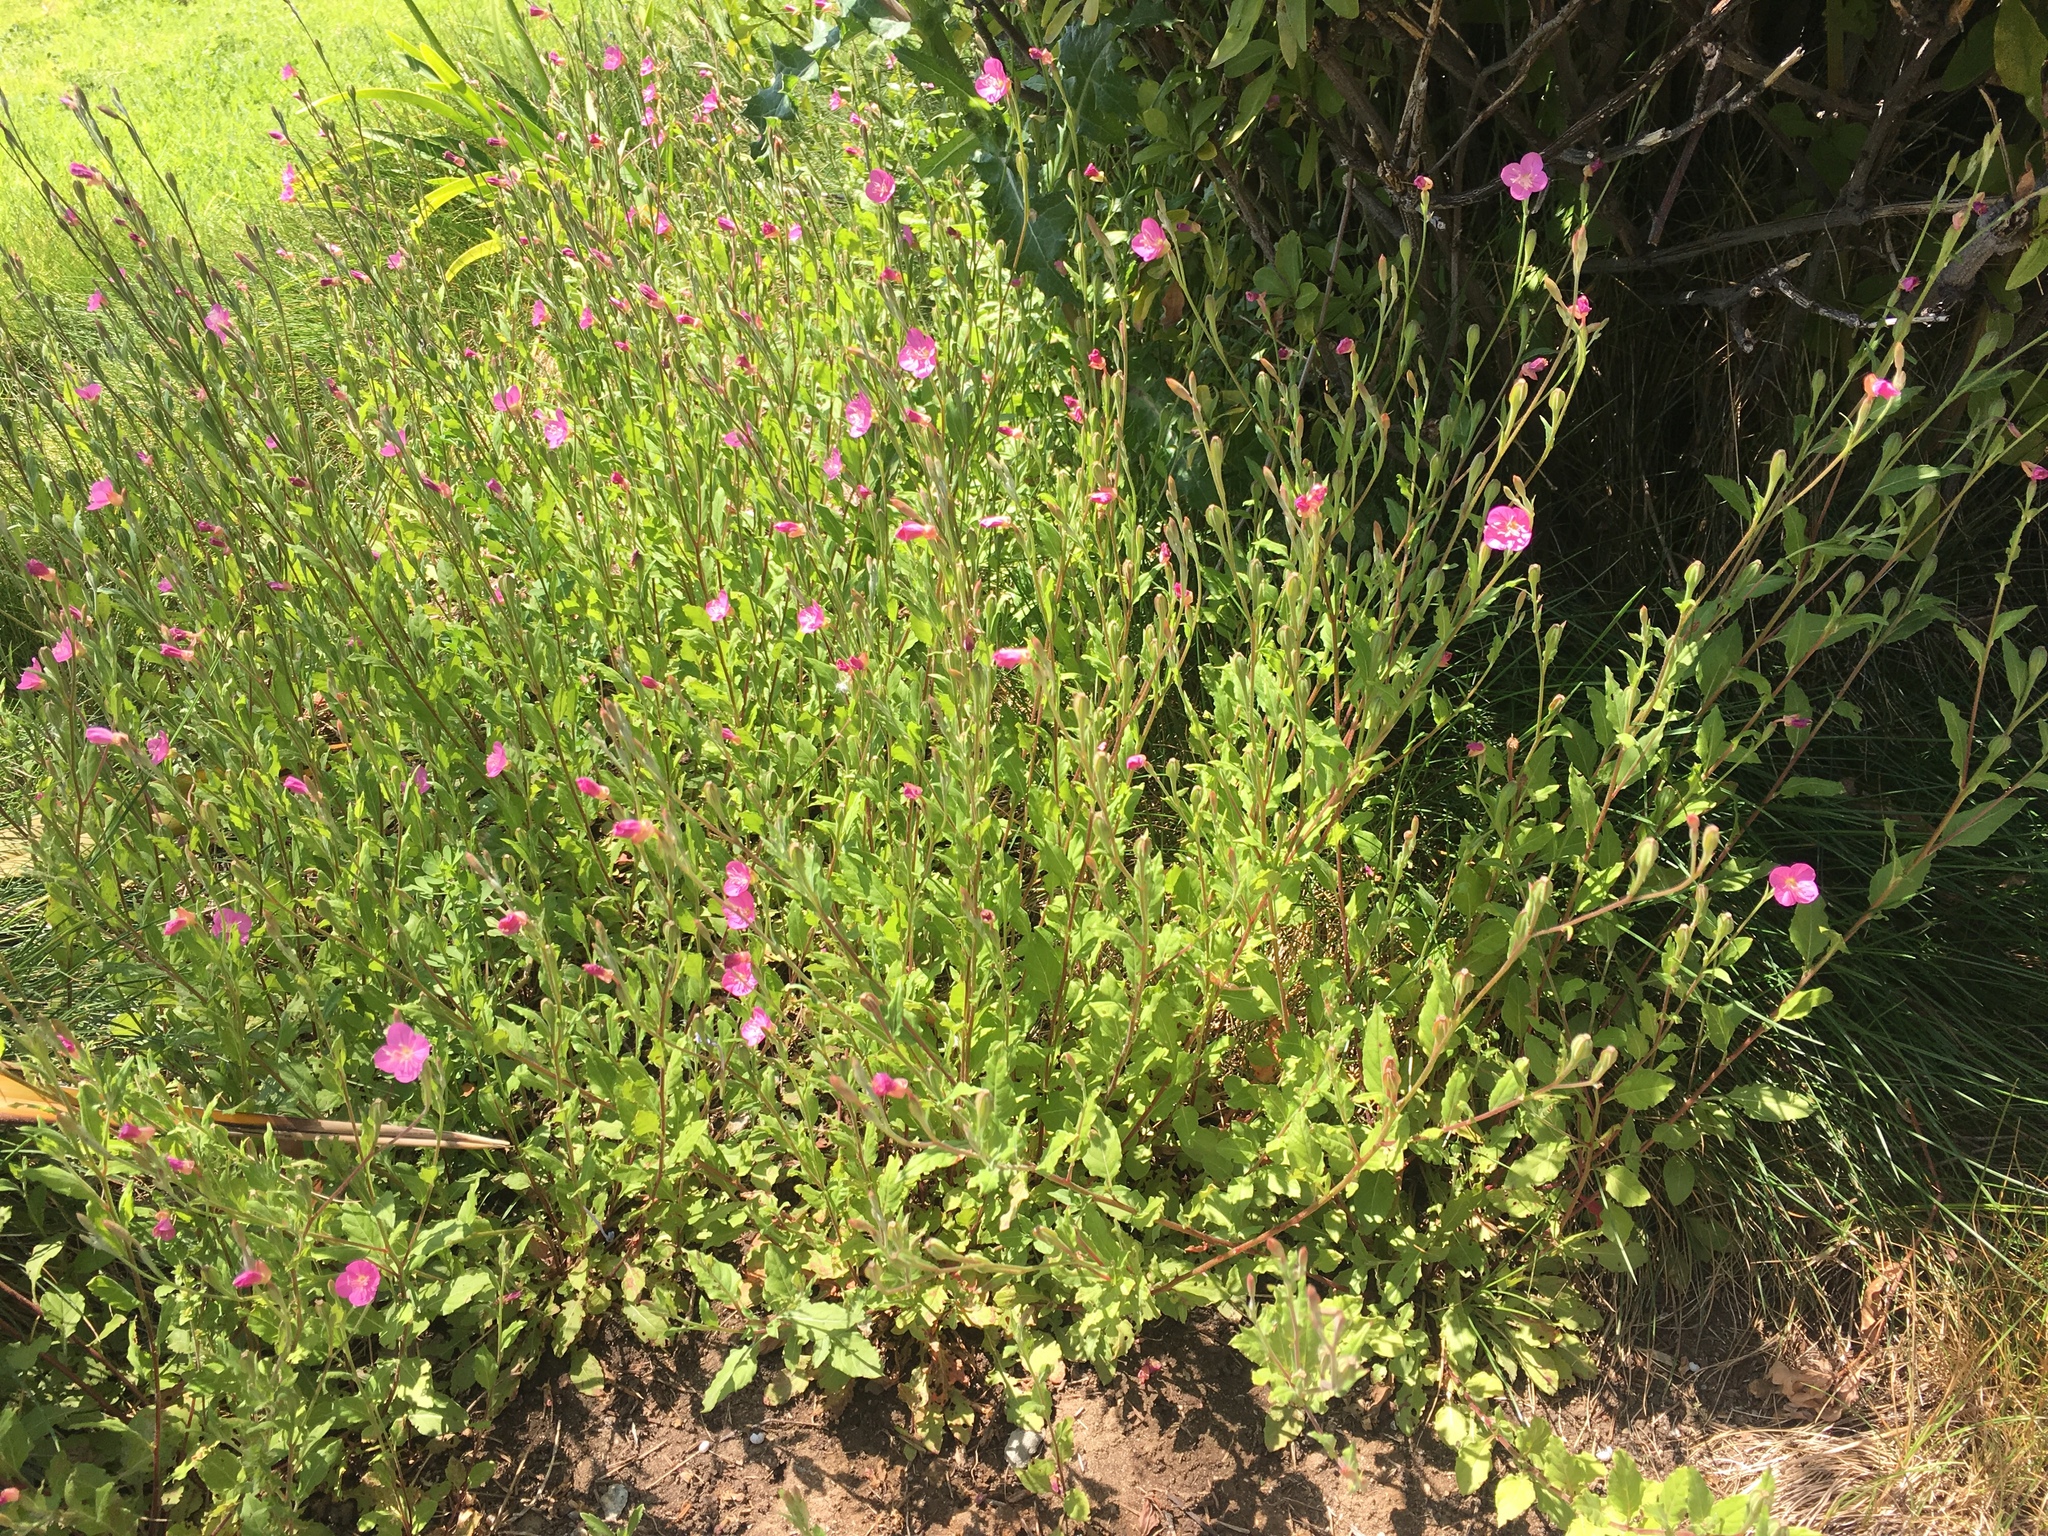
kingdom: Plantae
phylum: Tracheophyta
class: Magnoliopsida
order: Myrtales
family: Onagraceae
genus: Oenothera
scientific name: Oenothera rosea
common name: Rosy evening-primrose
